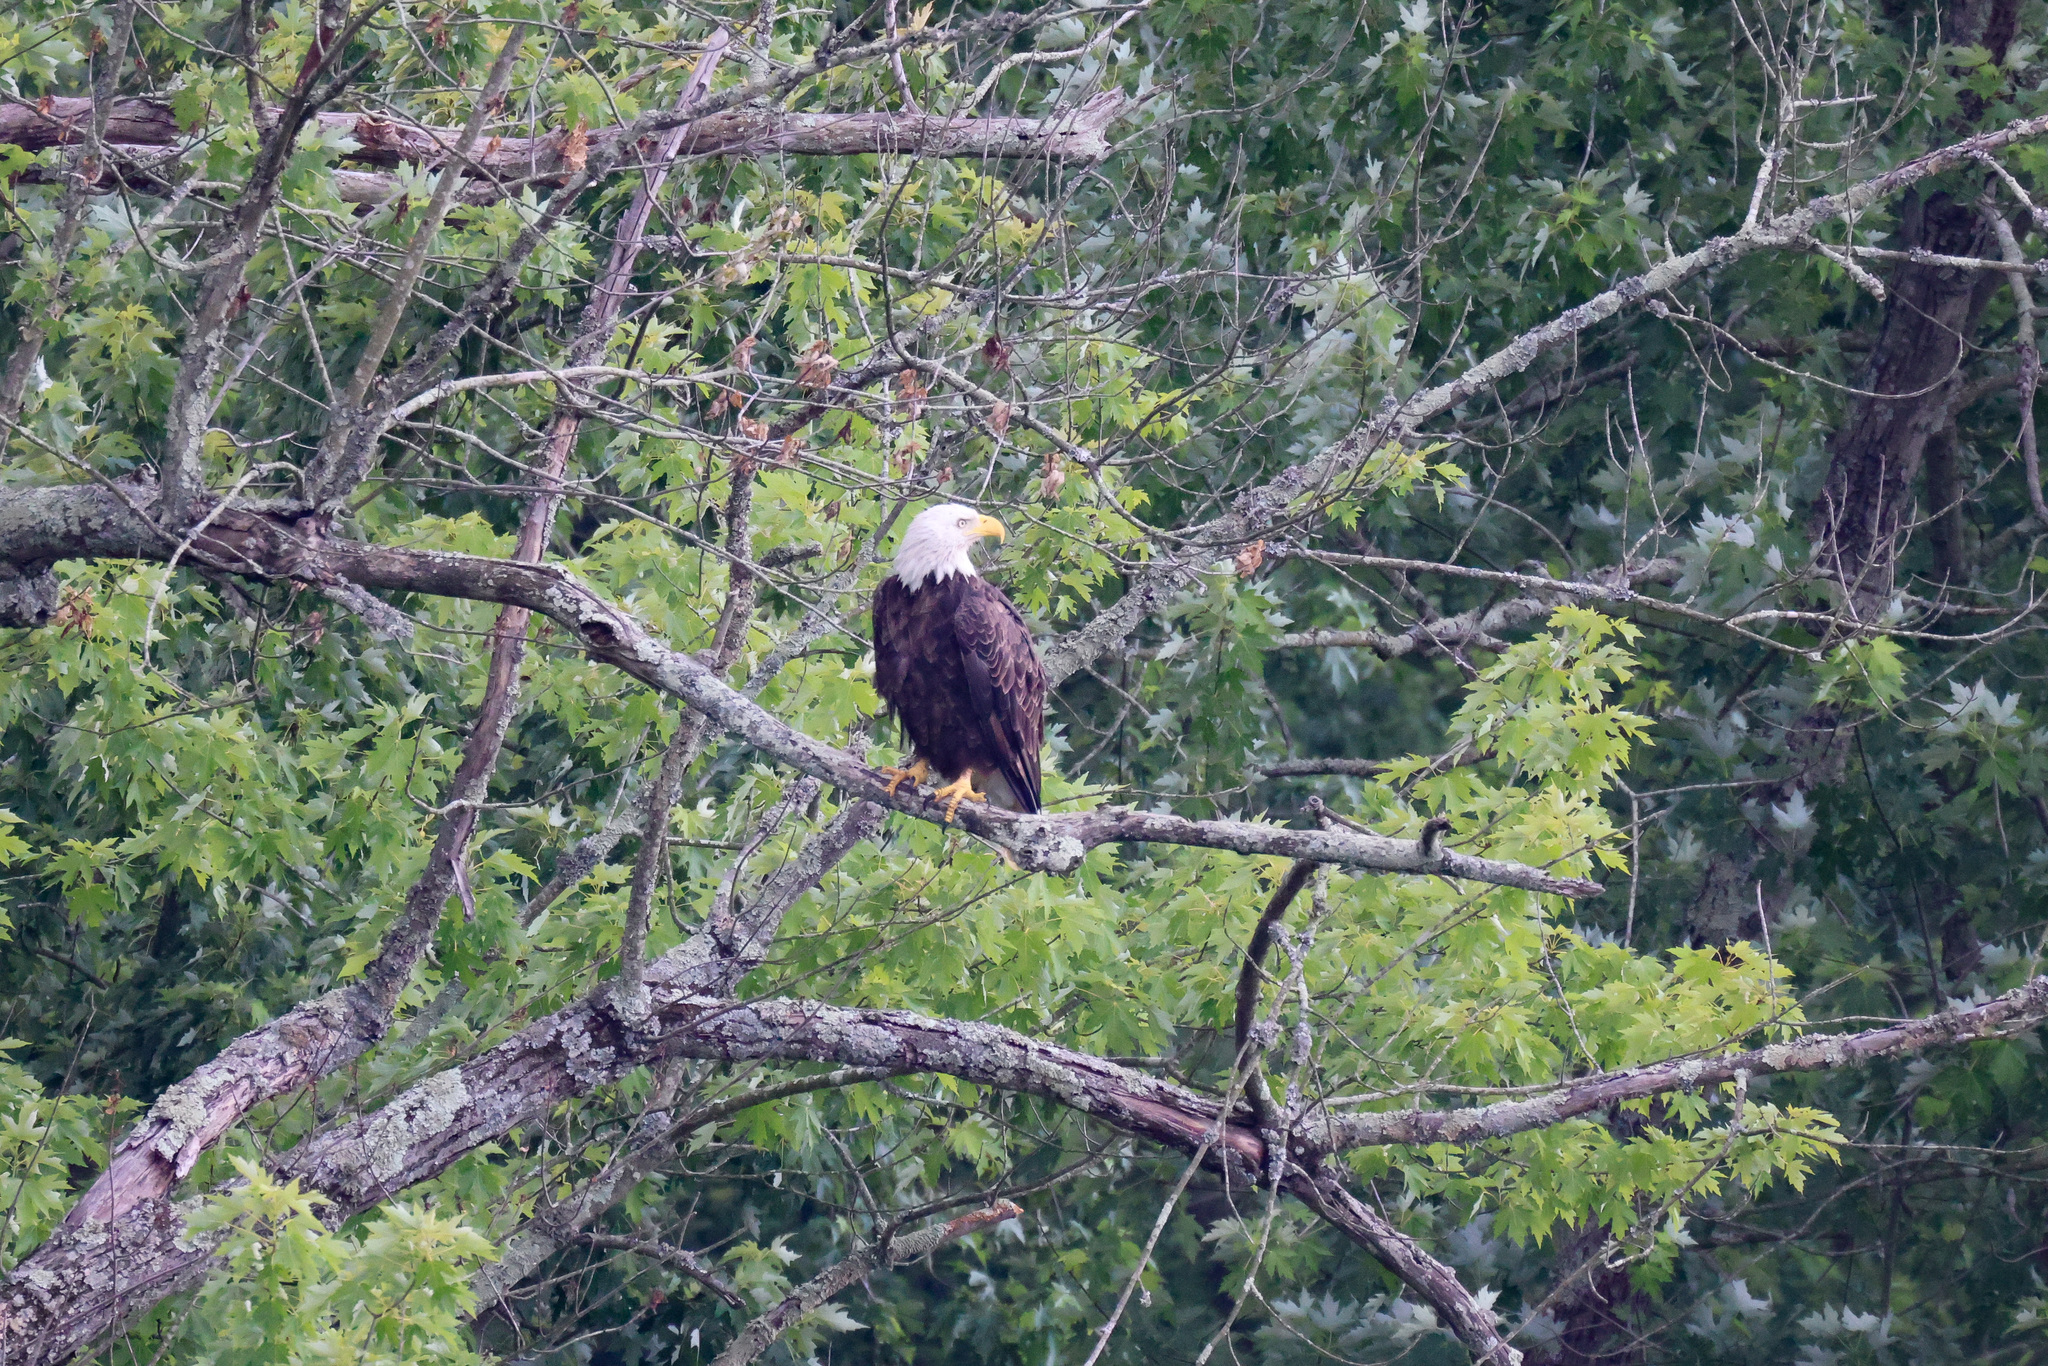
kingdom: Animalia
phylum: Chordata
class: Aves
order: Accipitriformes
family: Accipitridae
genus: Haliaeetus
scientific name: Haliaeetus leucocephalus
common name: Bald eagle
